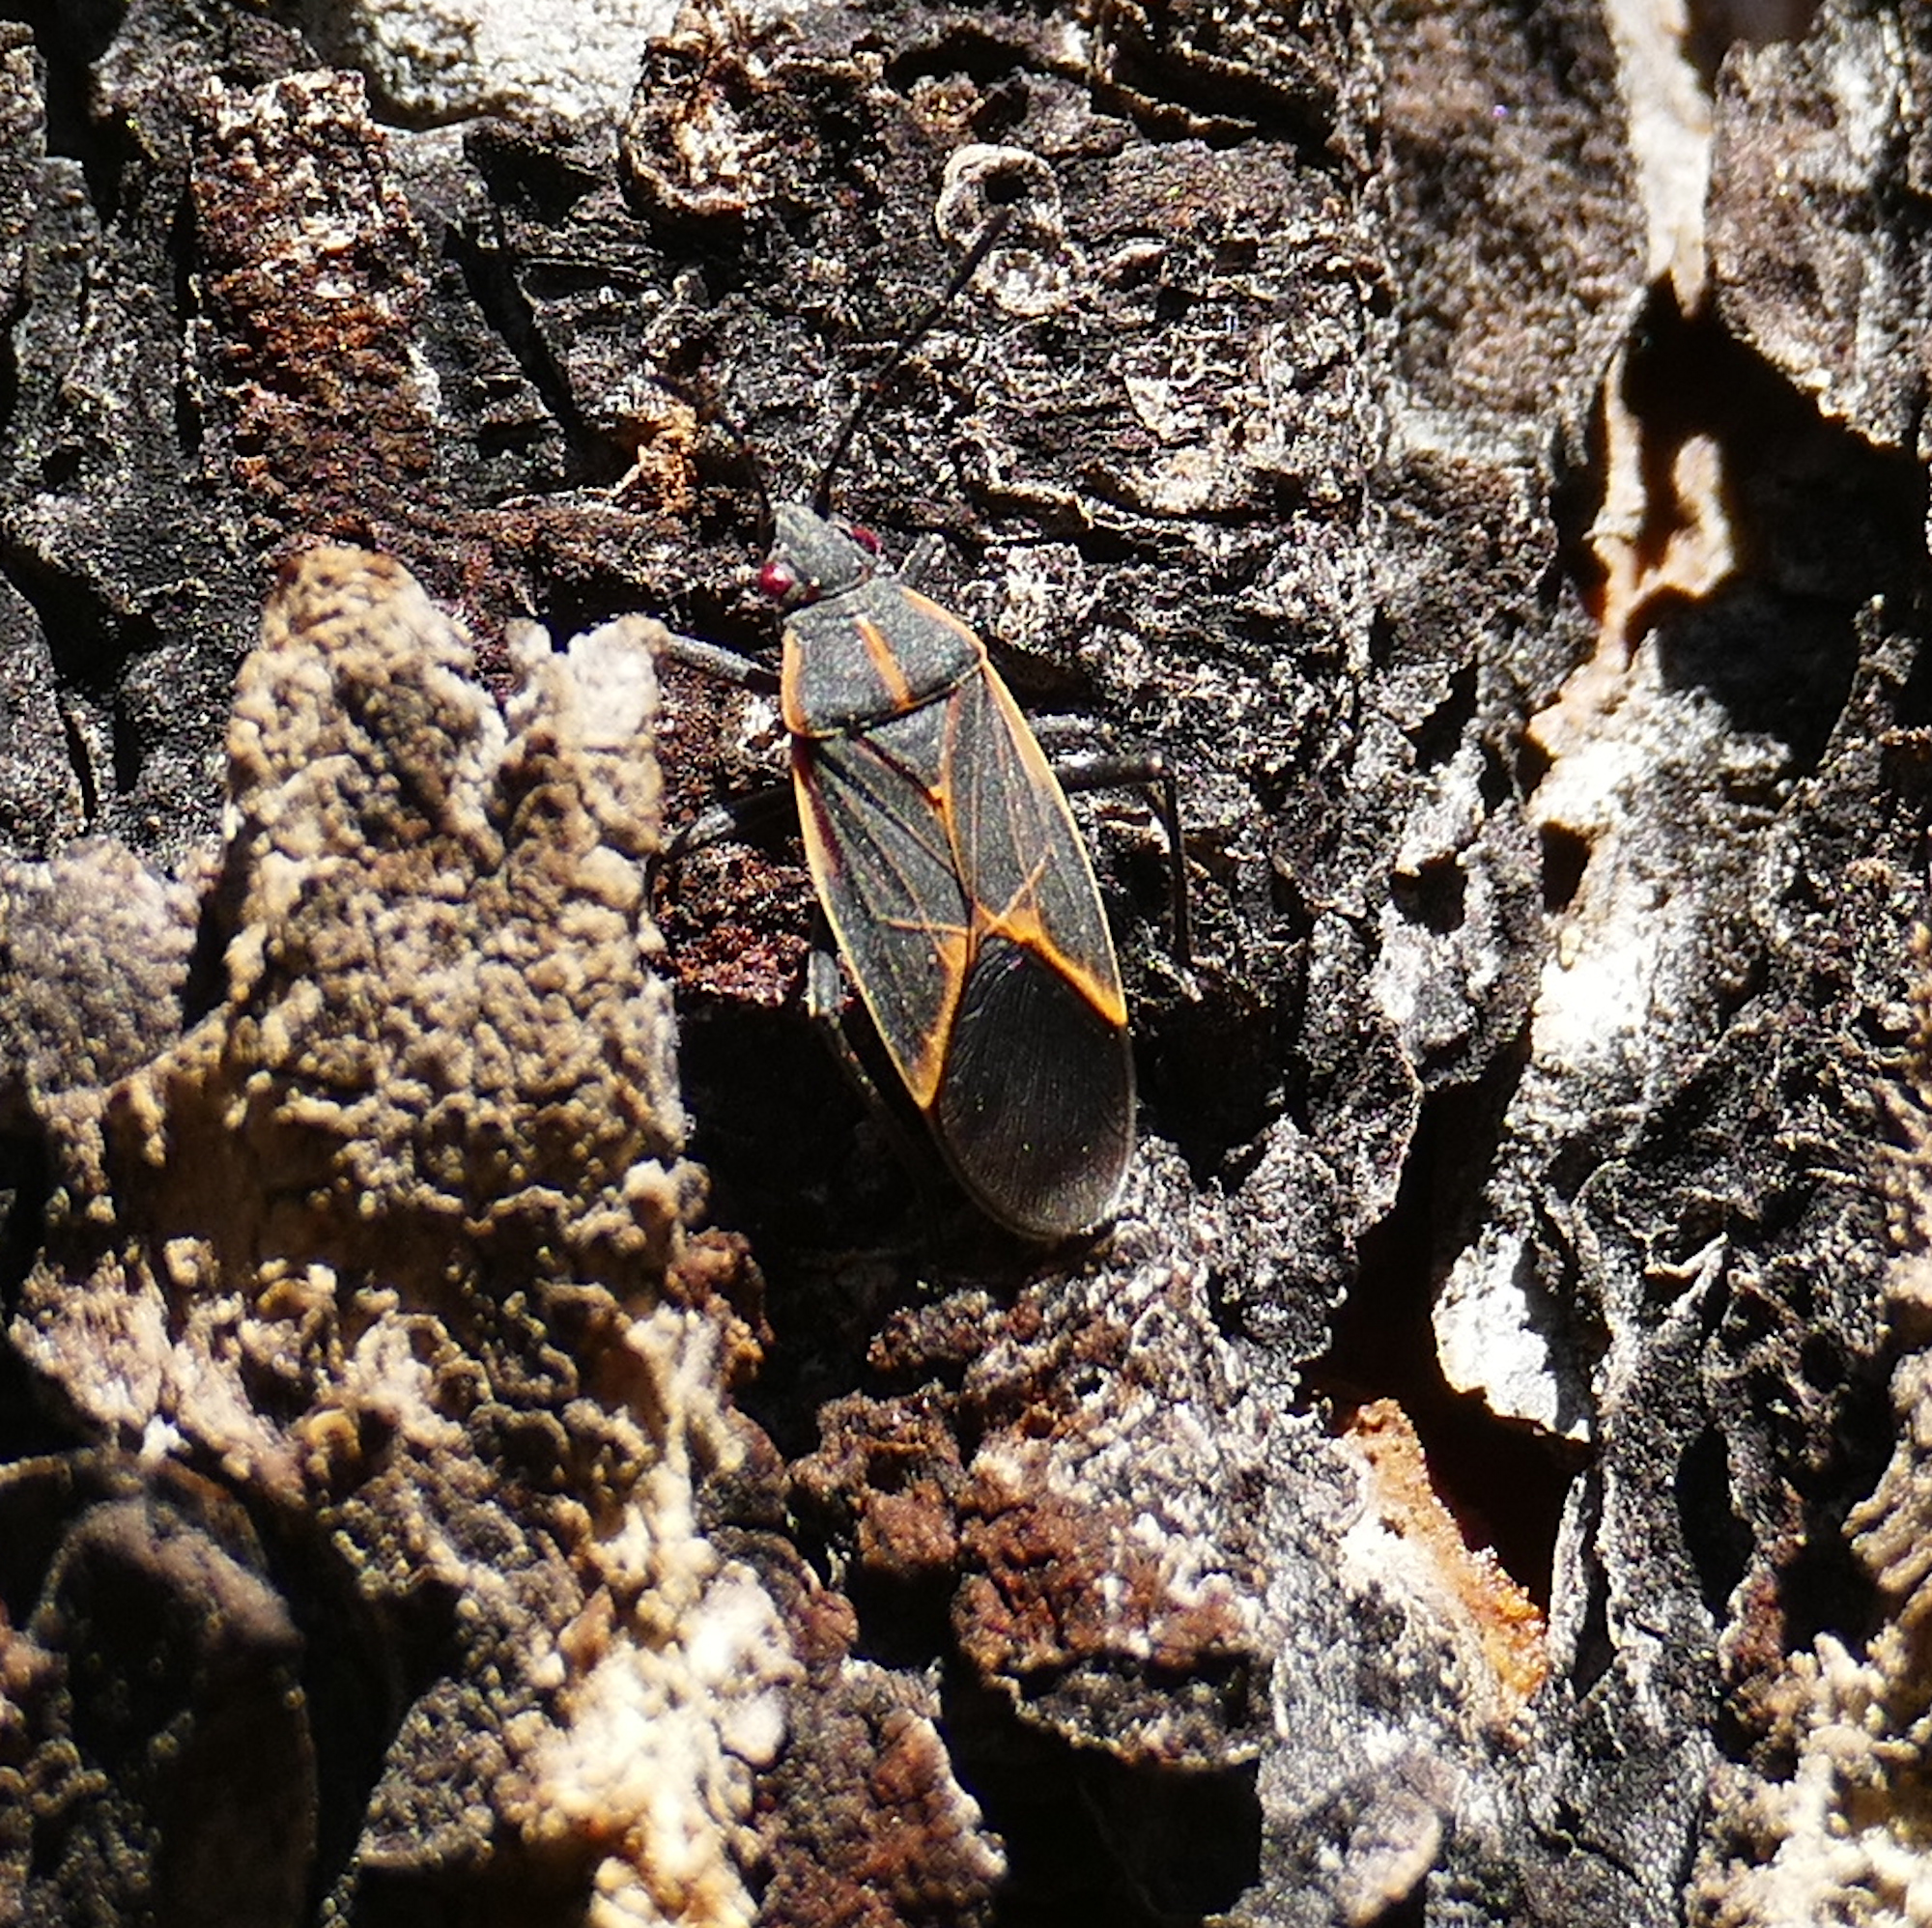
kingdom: Animalia
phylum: Arthropoda
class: Insecta
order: Hemiptera
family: Rhopalidae
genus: Boisea
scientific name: Boisea trivittata
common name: Boxelder bug
